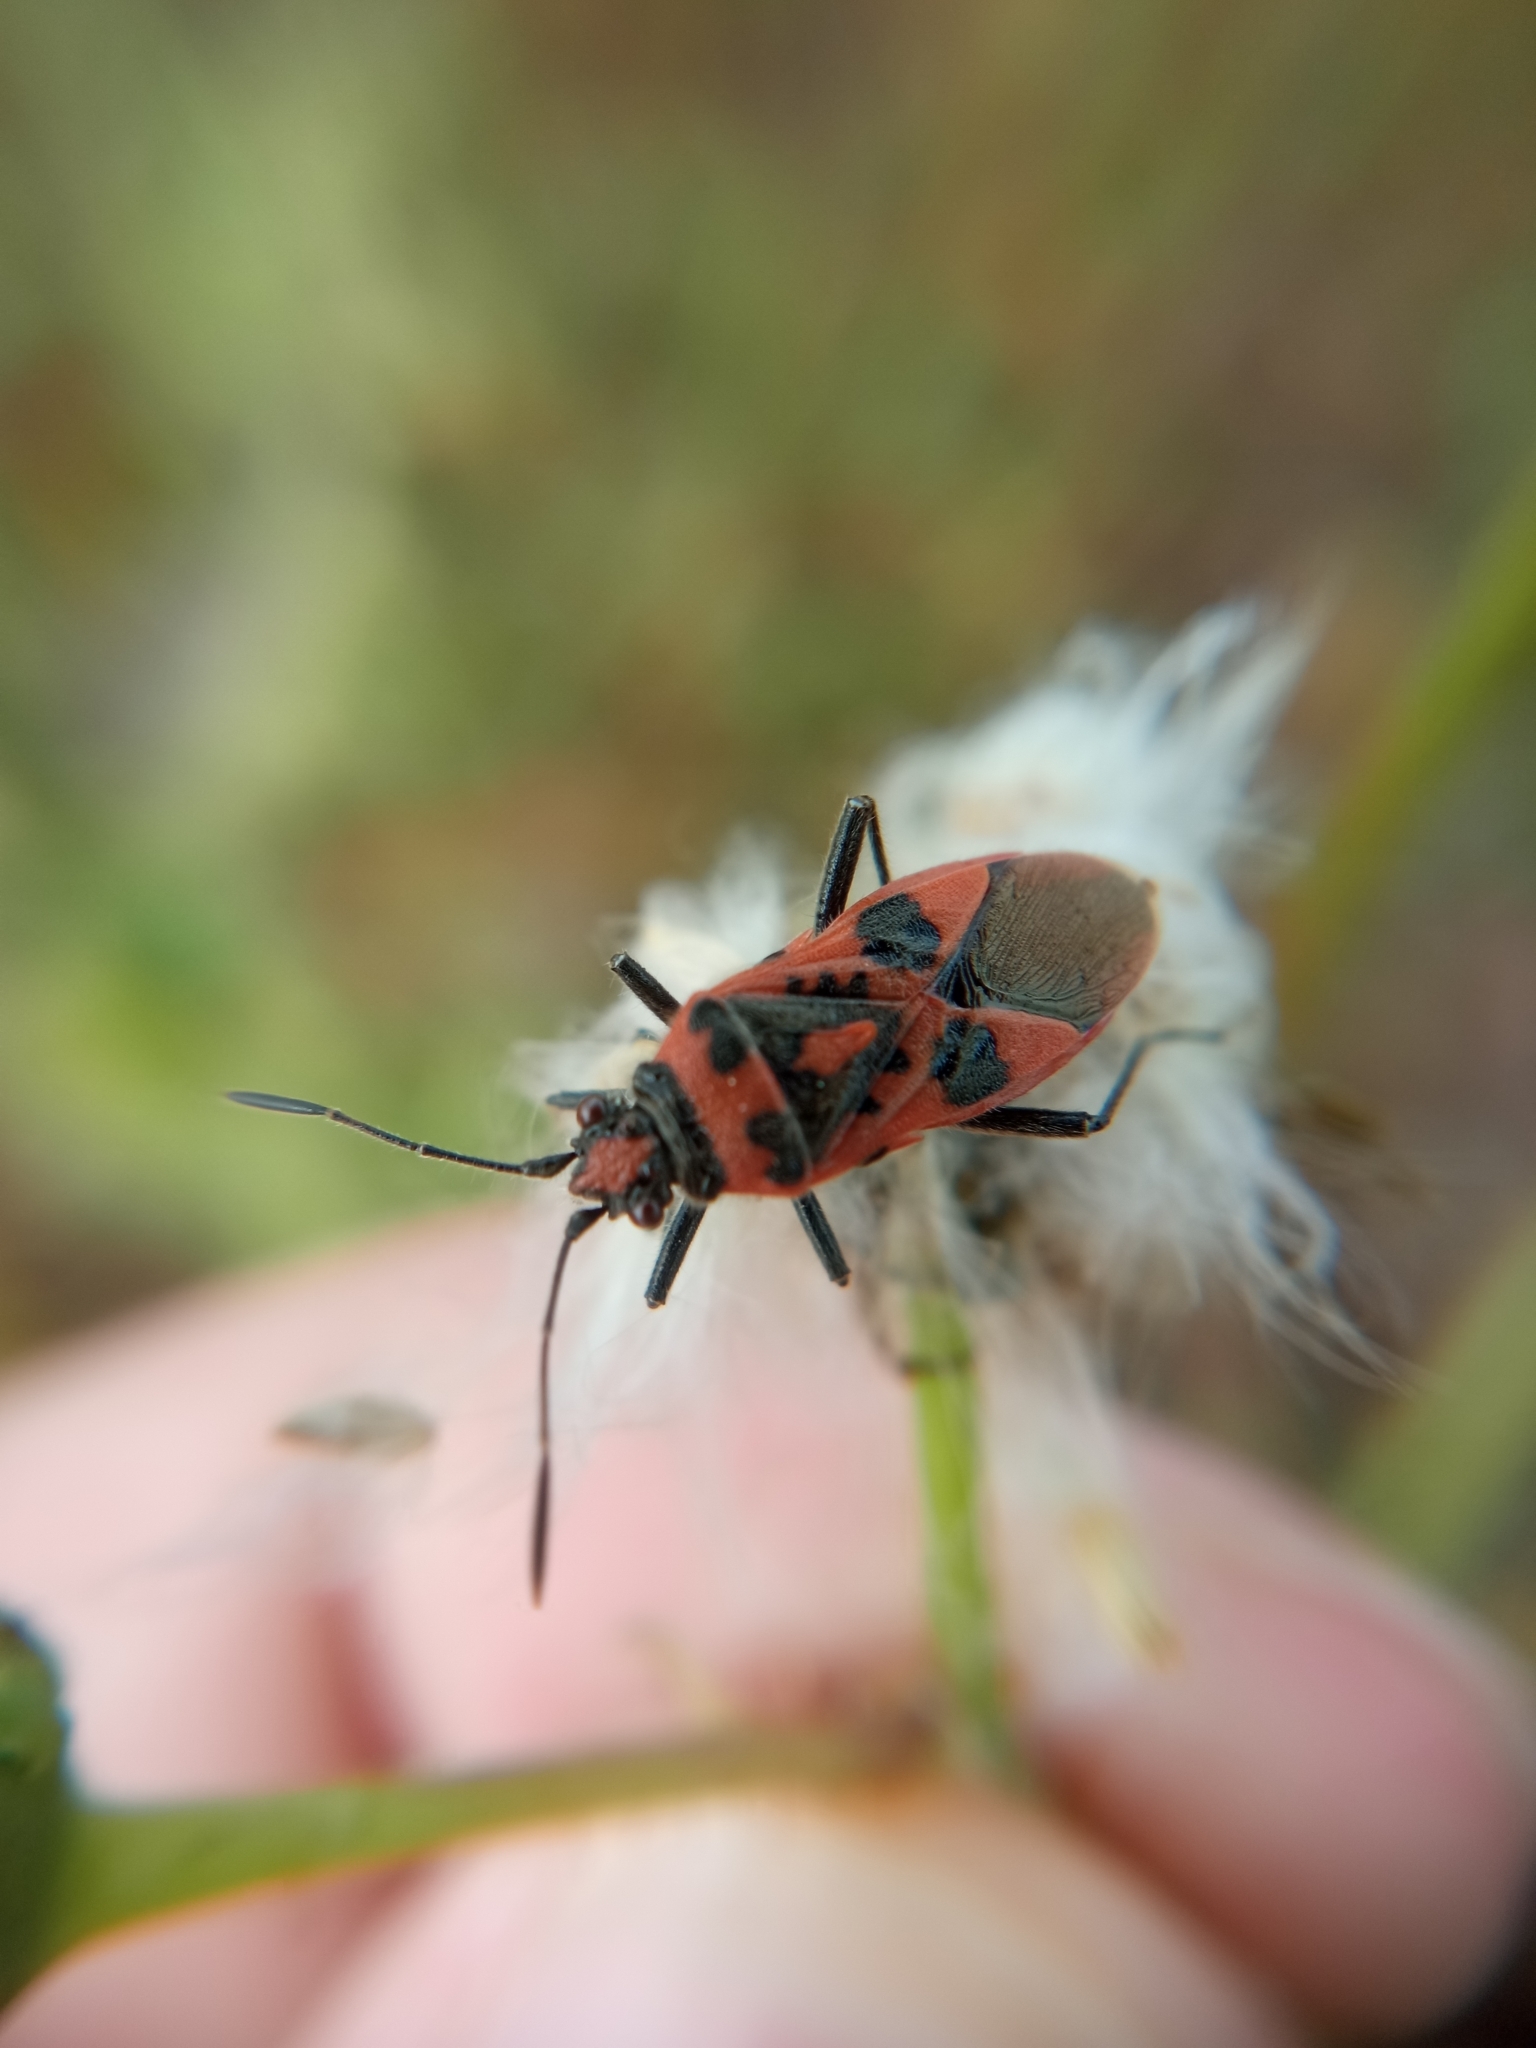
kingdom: Animalia
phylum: Arthropoda
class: Insecta
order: Hemiptera
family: Rhopalidae
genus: Corizus
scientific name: Corizus hyoscyami
